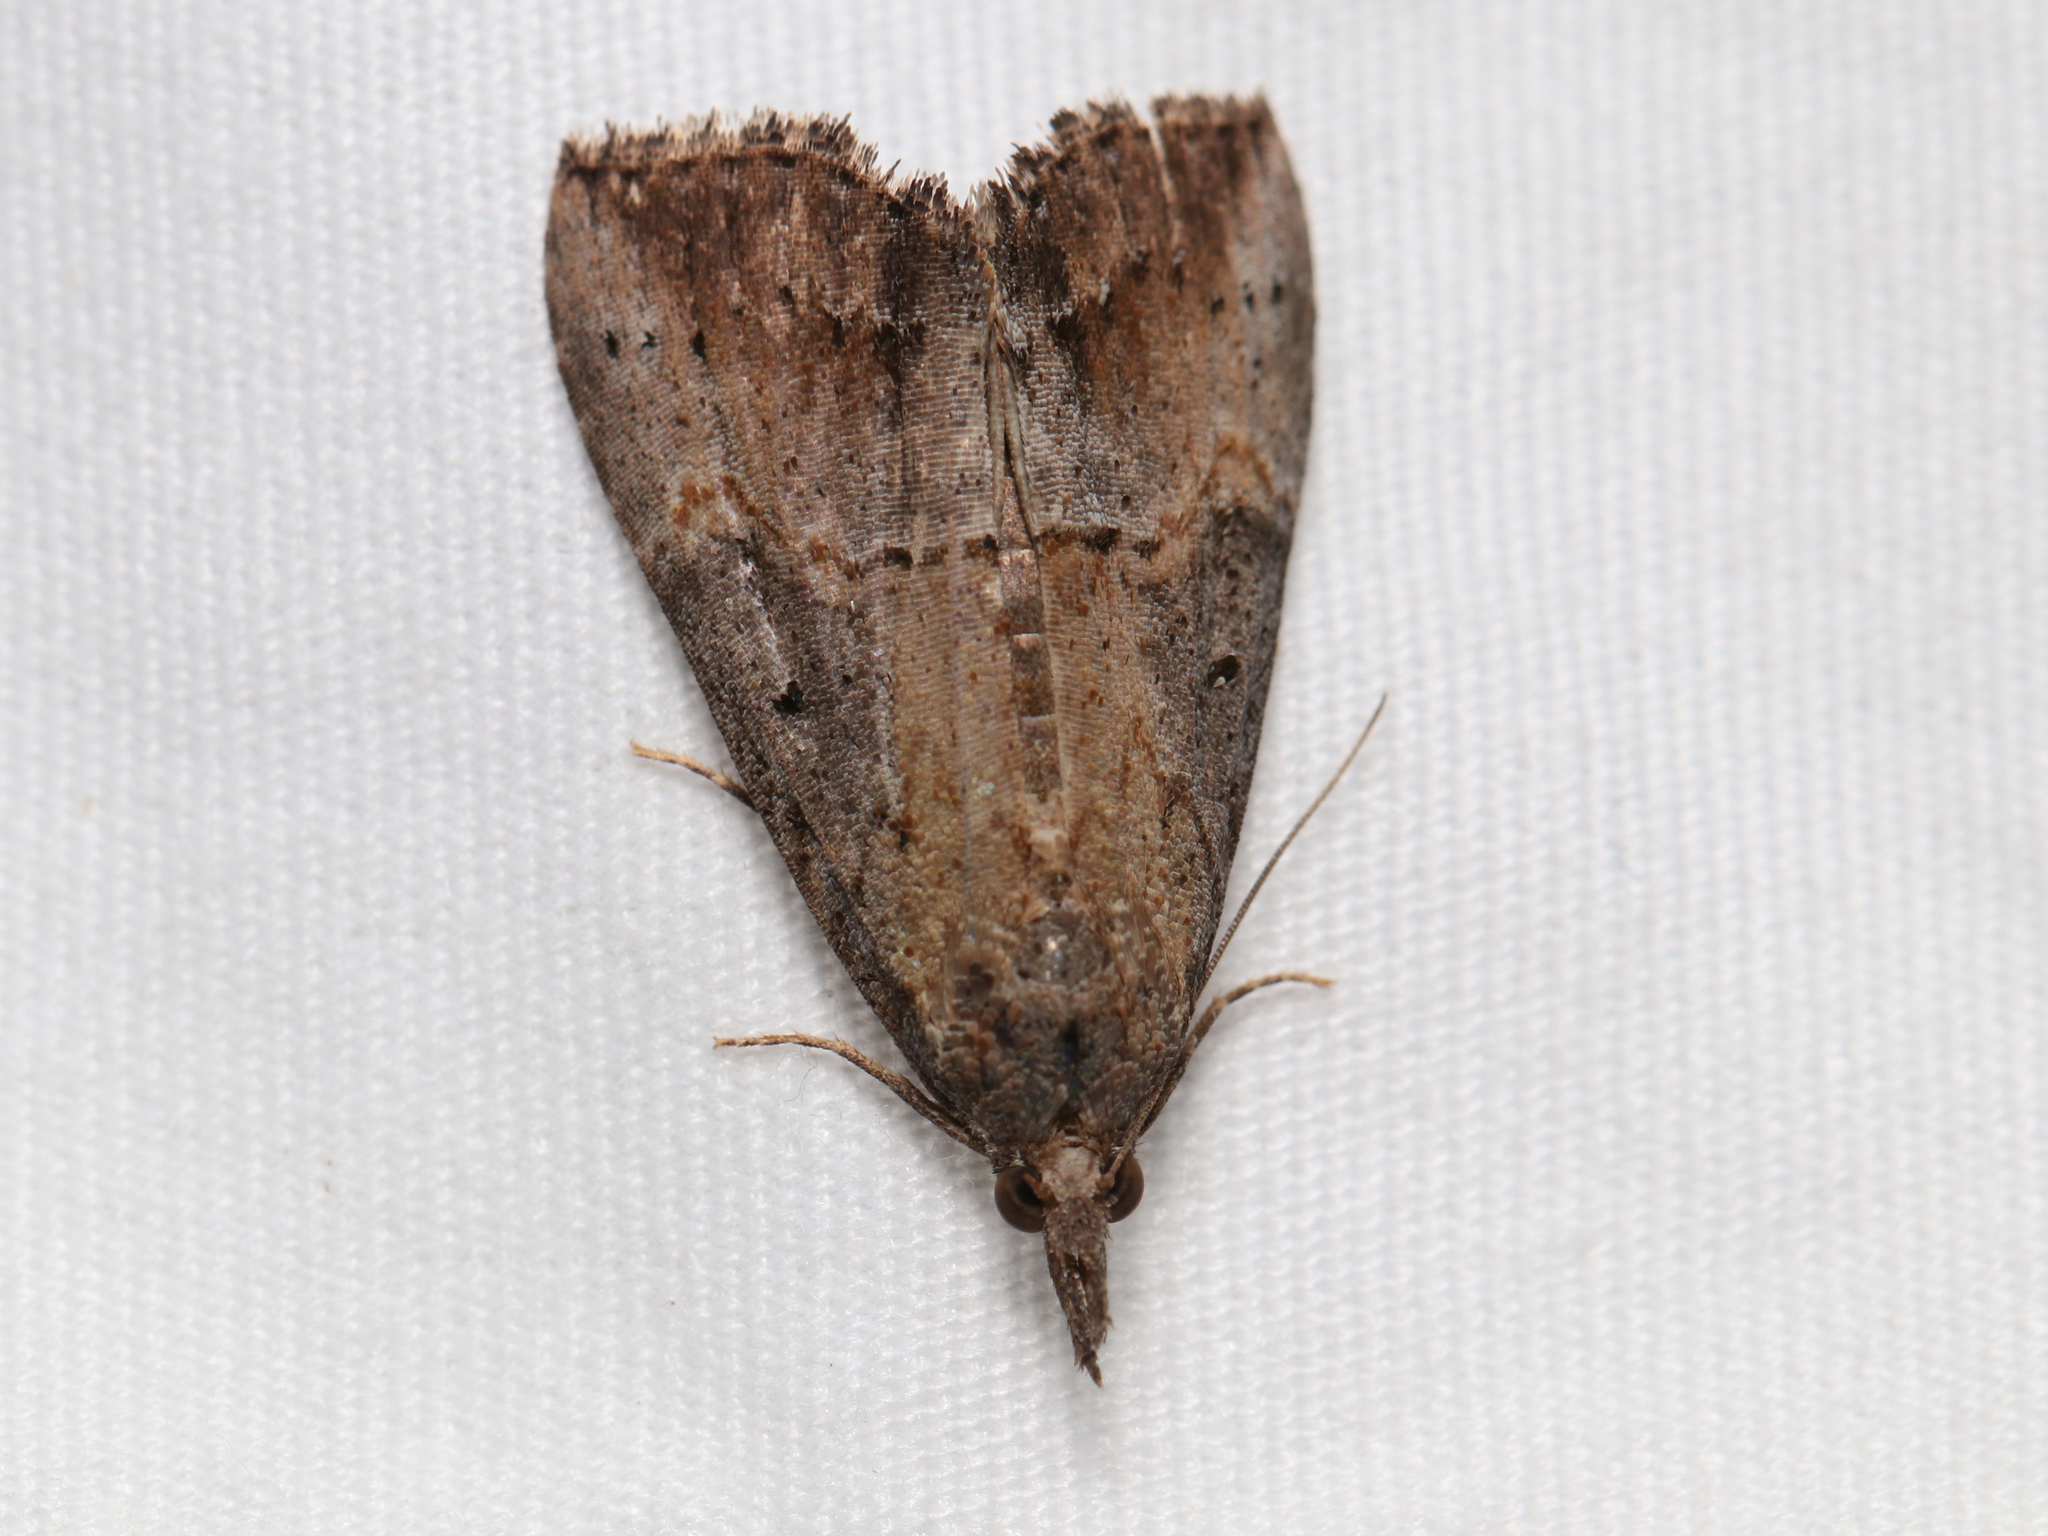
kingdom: Animalia
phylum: Arthropoda
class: Insecta
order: Lepidoptera
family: Erebidae
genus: Hypena
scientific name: Hypena scabra
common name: Green cloverworm
